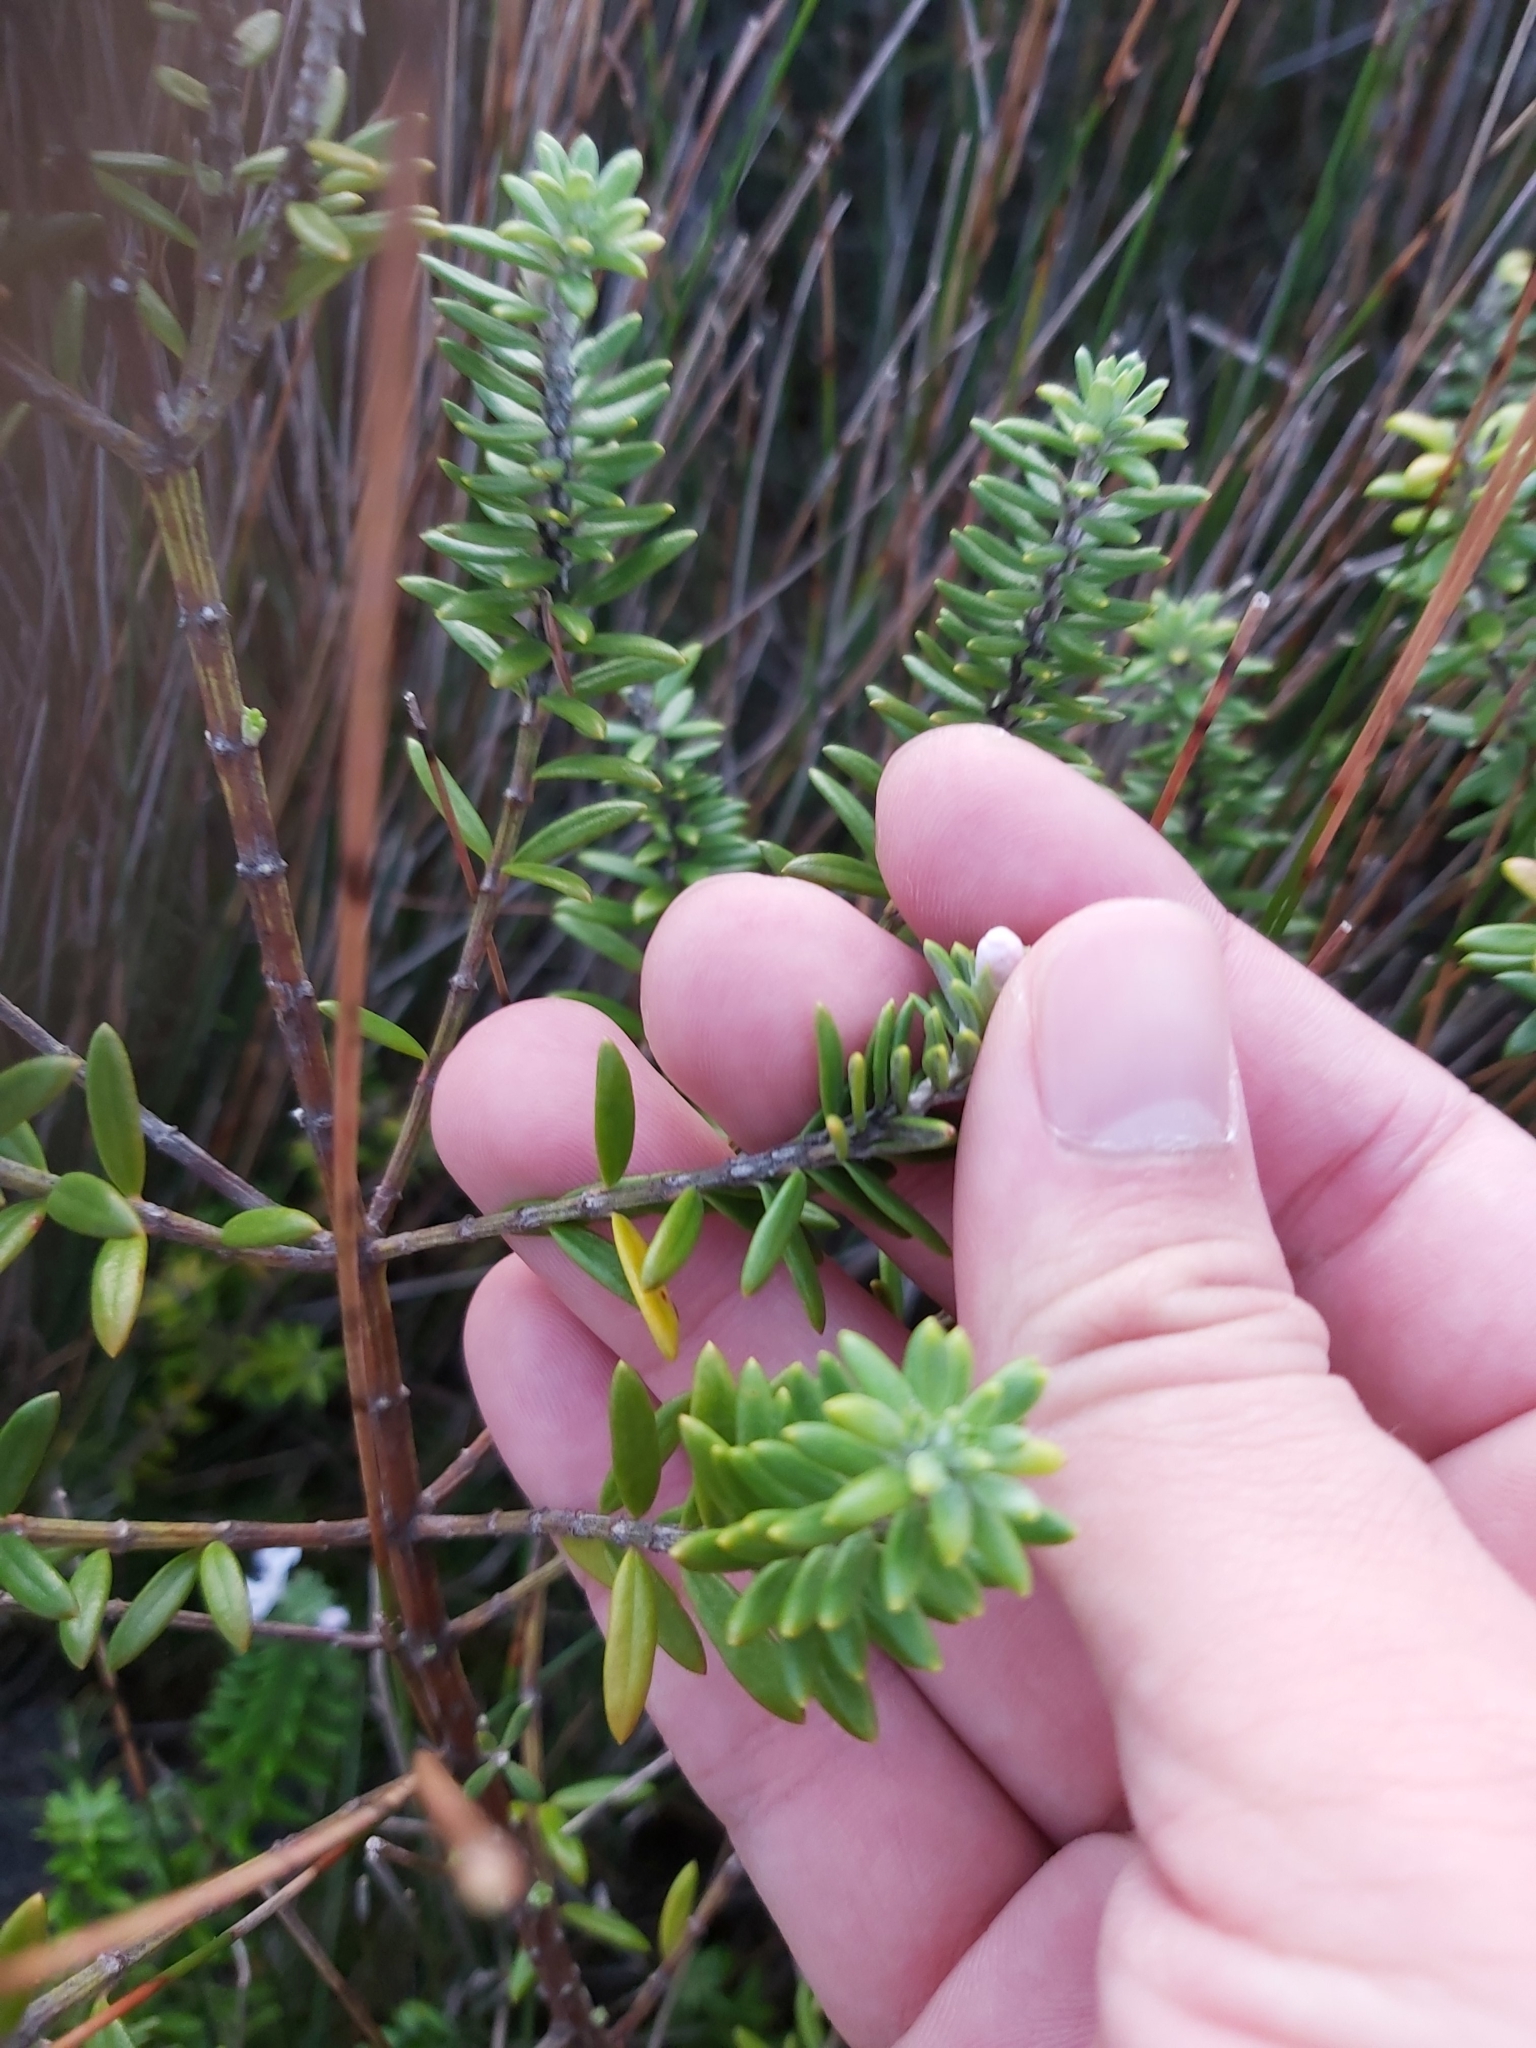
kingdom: Plantae
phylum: Tracheophyta
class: Magnoliopsida
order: Lamiales
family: Lamiaceae
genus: Westringia
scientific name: Westringia fruticosa
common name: Coastal-rosemary
